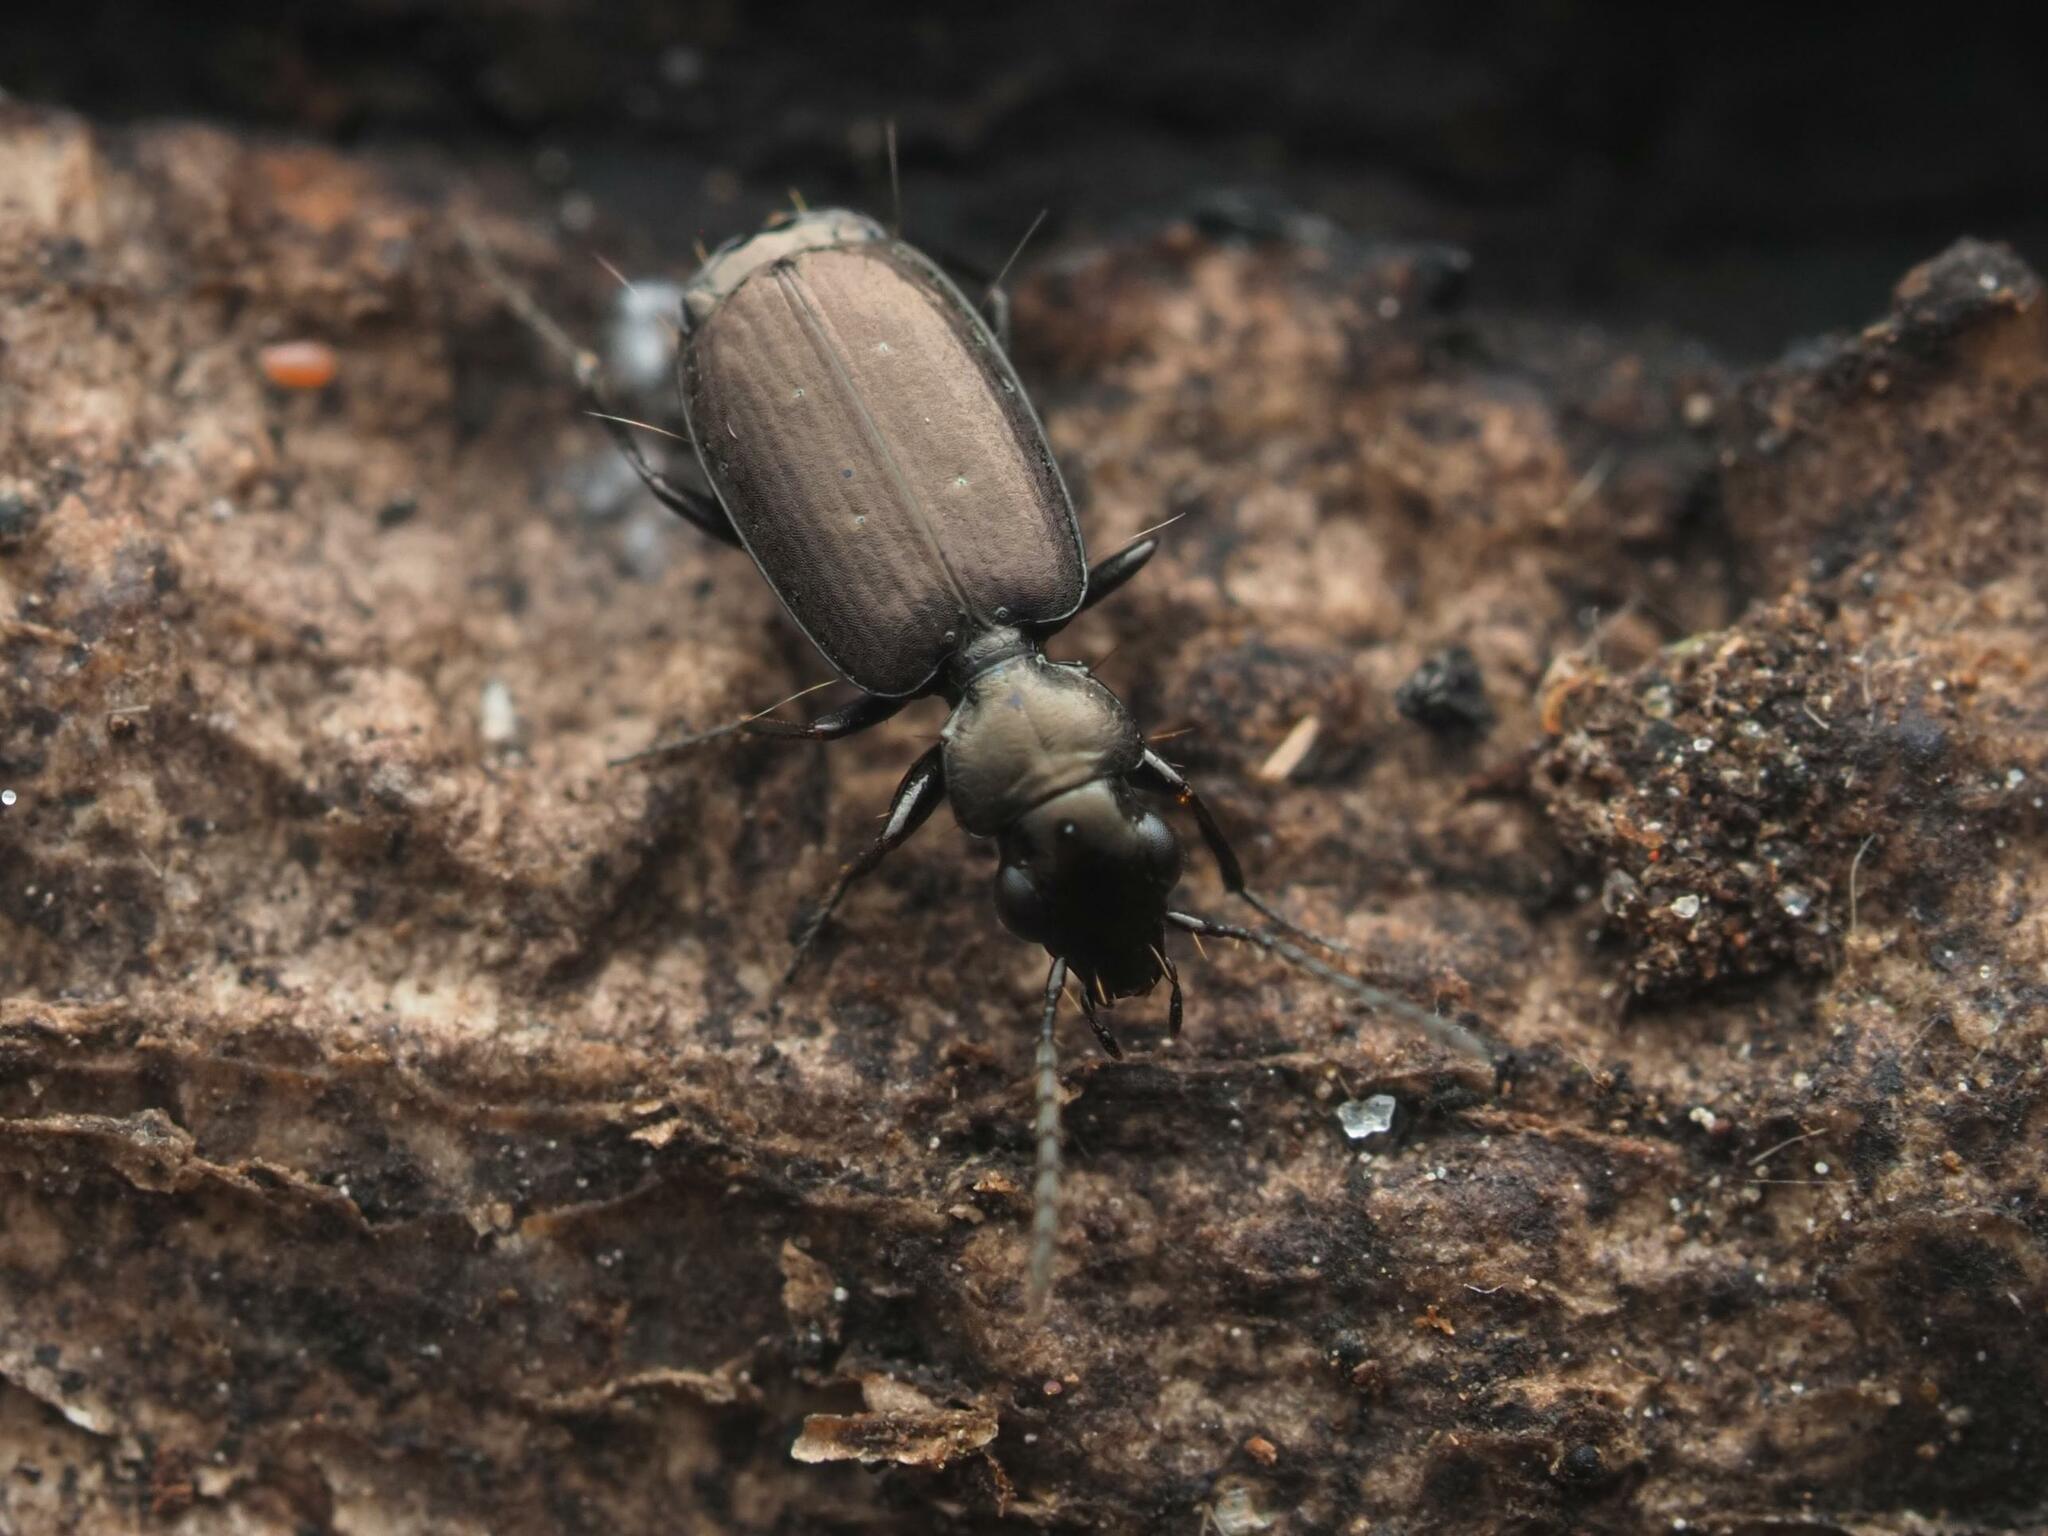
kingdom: Animalia
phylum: Arthropoda
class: Insecta
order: Coleoptera
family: Carabidae
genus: Syntomus
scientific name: Syntomus foveatus
